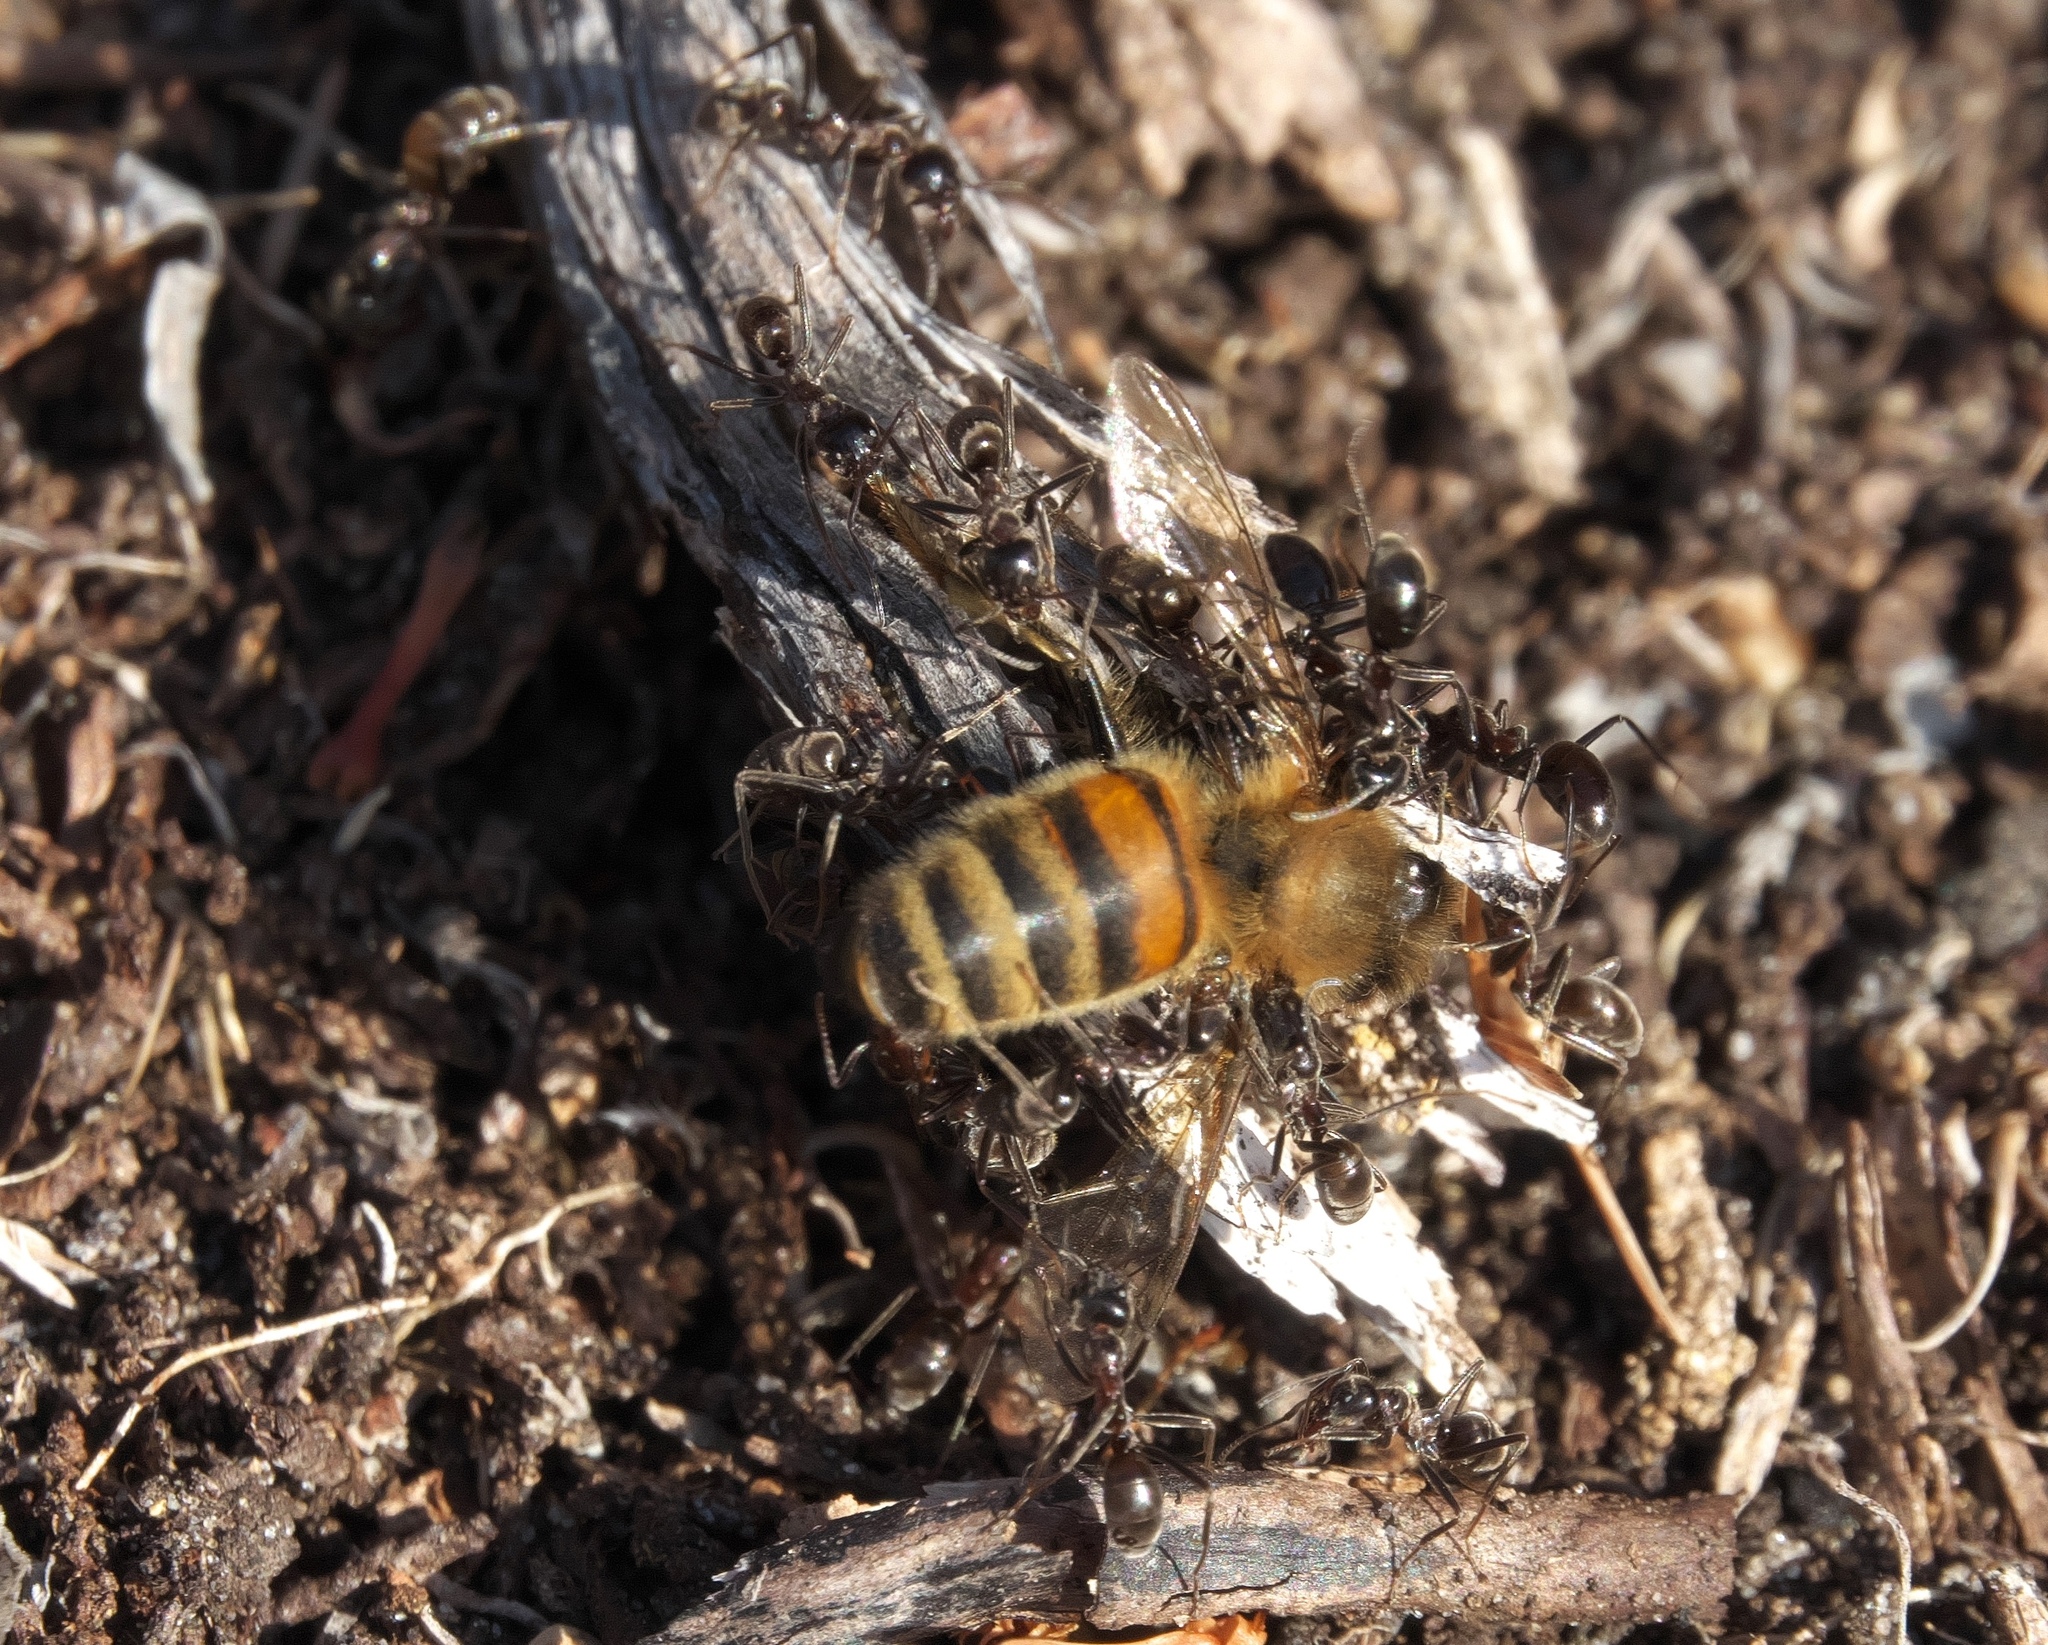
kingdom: Animalia
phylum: Arthropoda
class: Insecta
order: Hymenoptera
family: Formicidae
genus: Iridomyrmex
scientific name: Iridomyrmex
